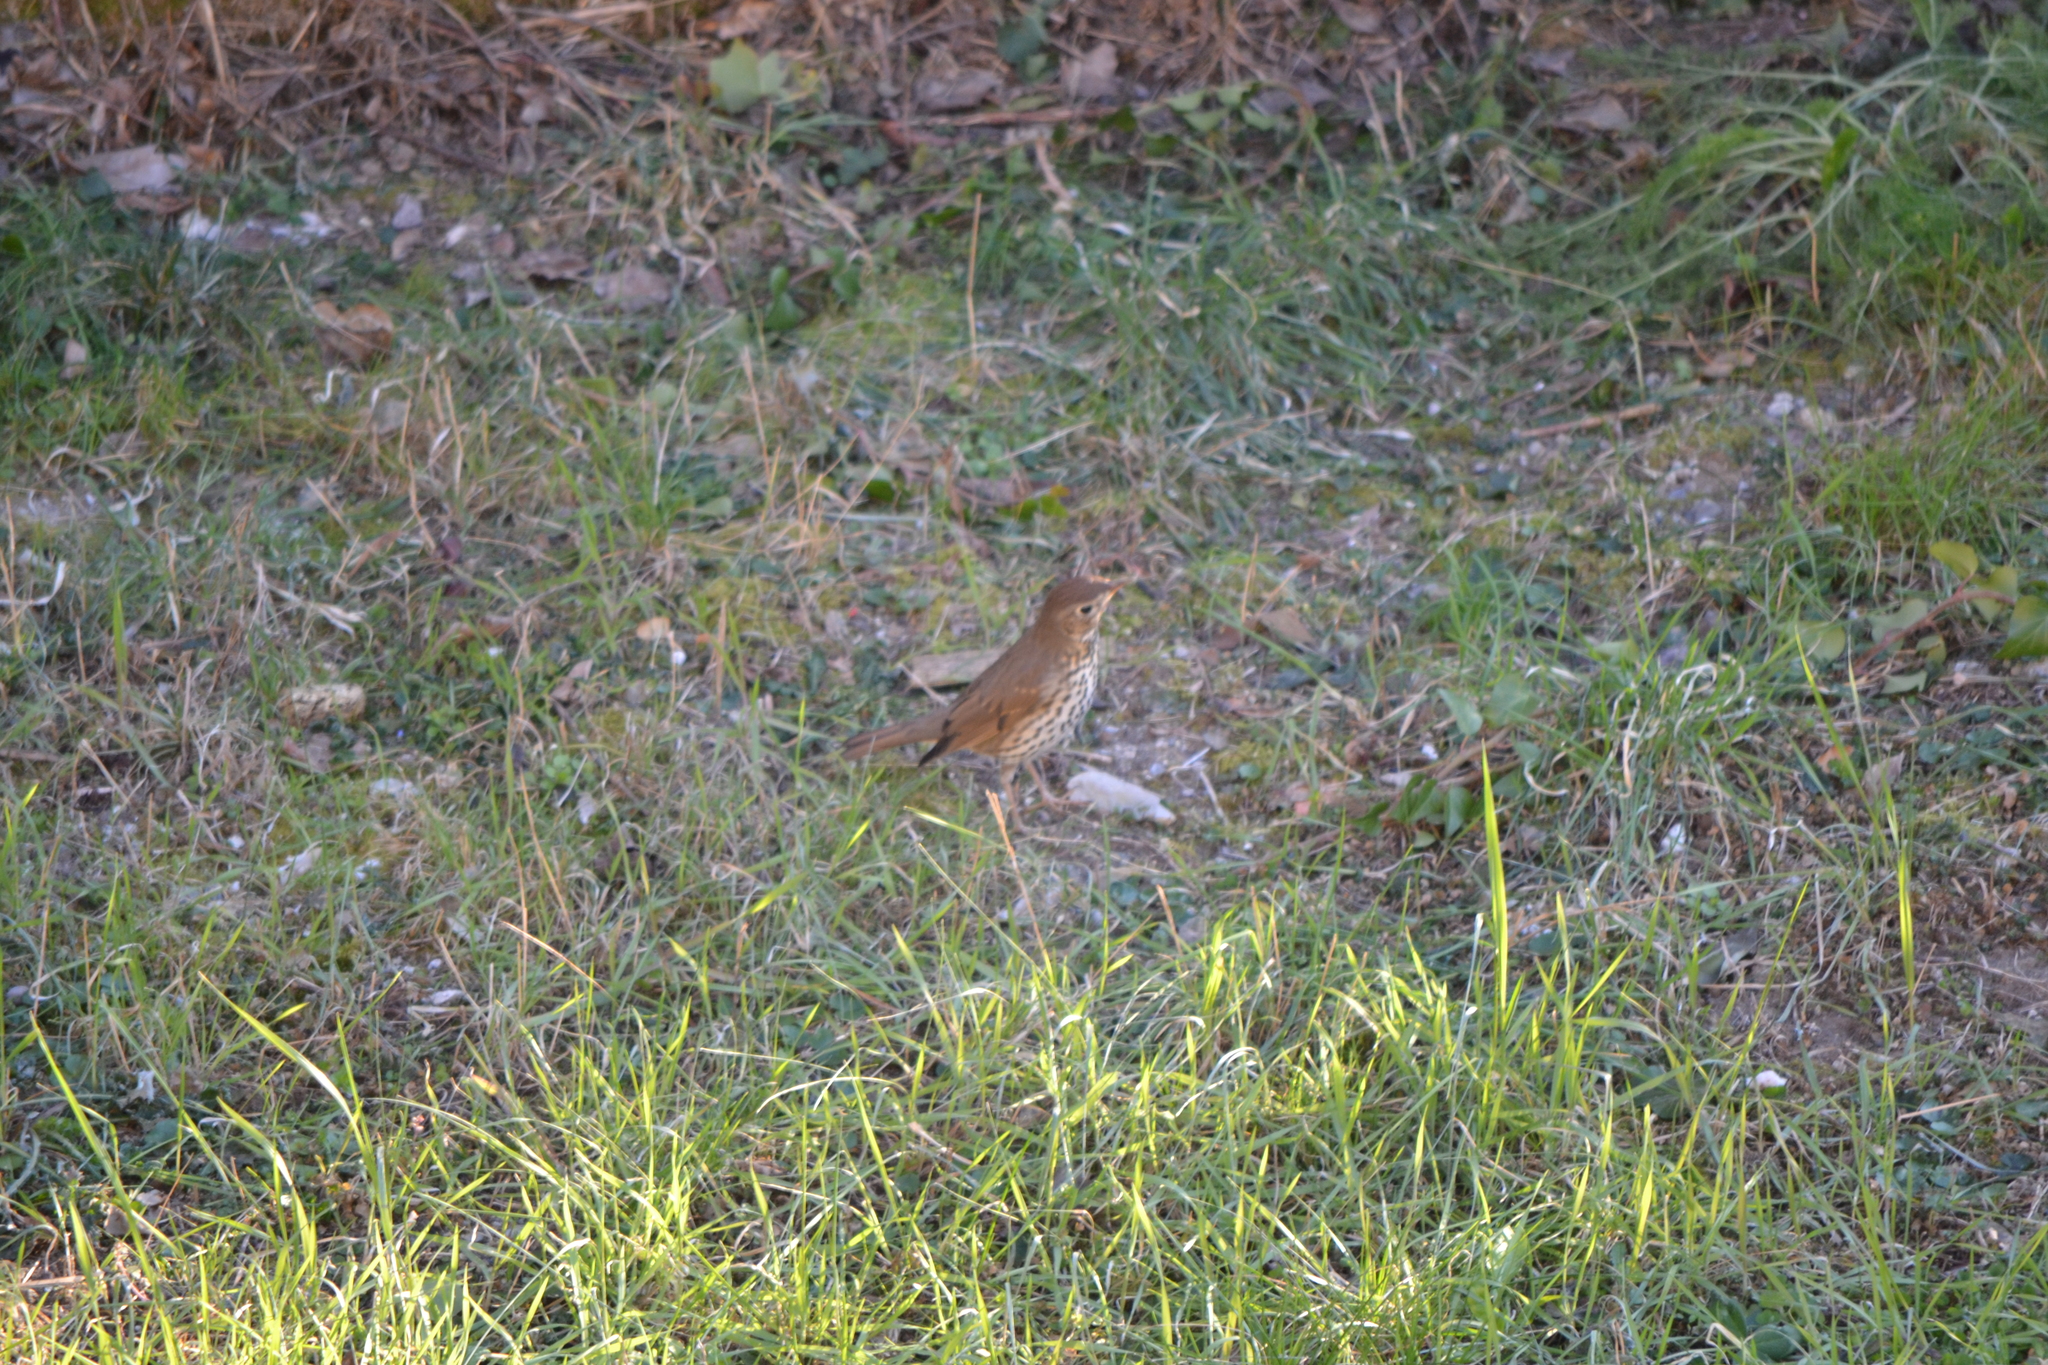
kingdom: Animalia
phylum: Chordata
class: Aves
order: Passeriformes
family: Turdidae
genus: Turdus
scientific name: Turdus philomelos
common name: Song thrush
